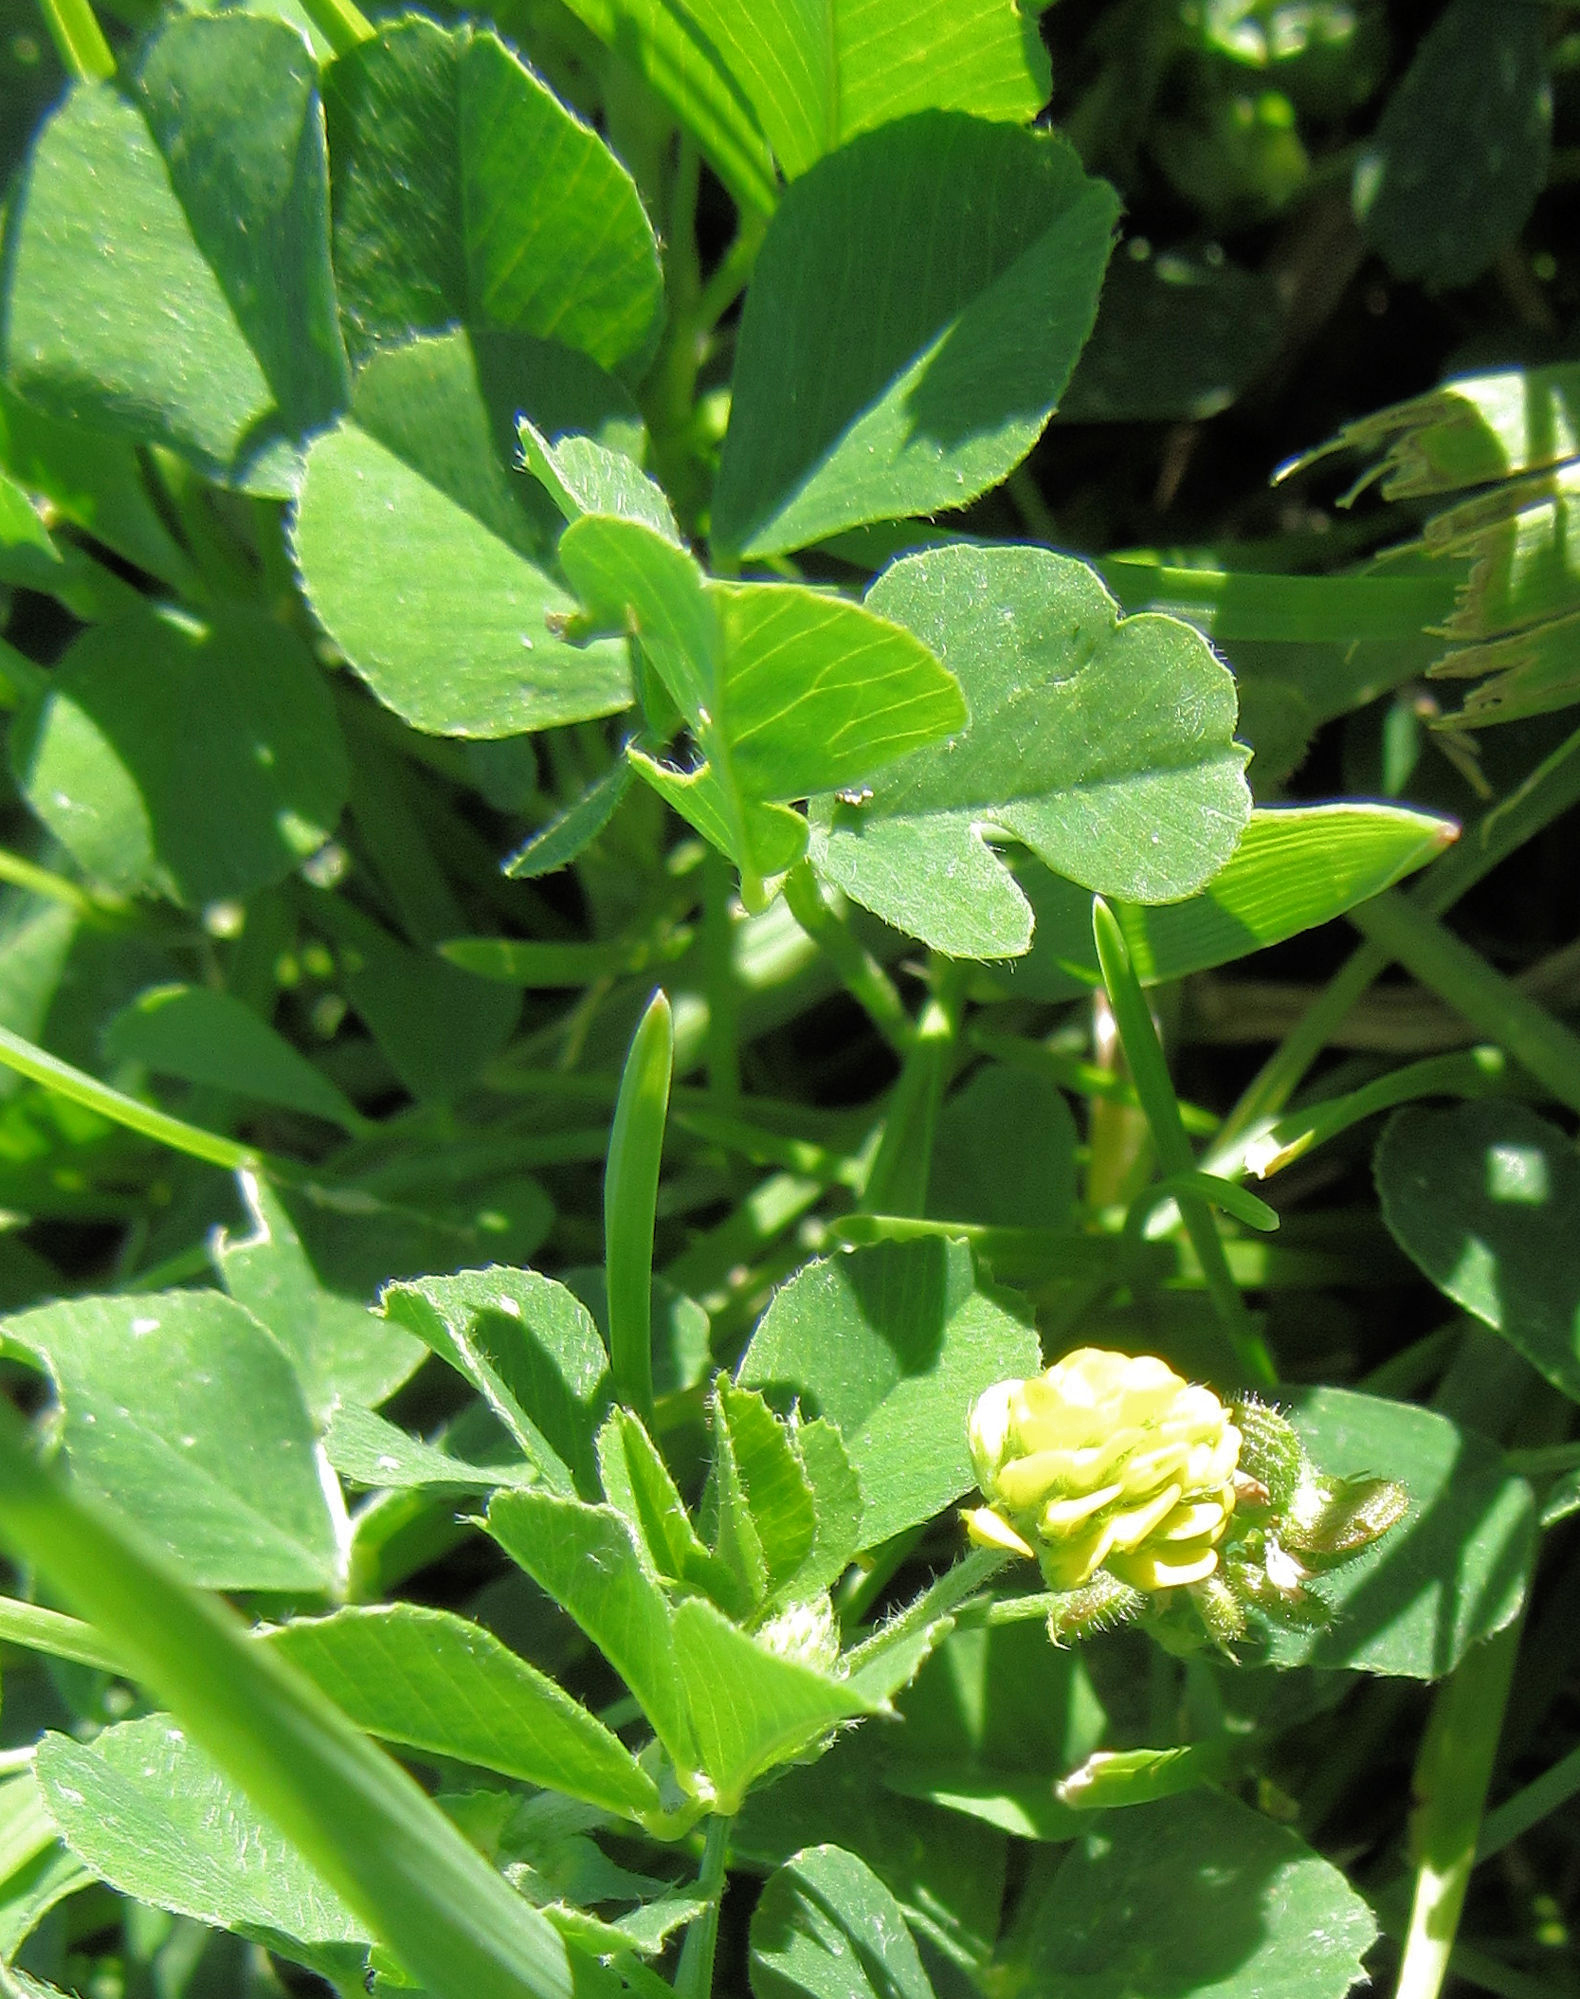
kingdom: Plantae
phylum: Tracheophyta
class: Magnoliopsida
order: Fabales
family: Fabaceae
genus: Medicago
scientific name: Medicago lupulina
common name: Black medick
